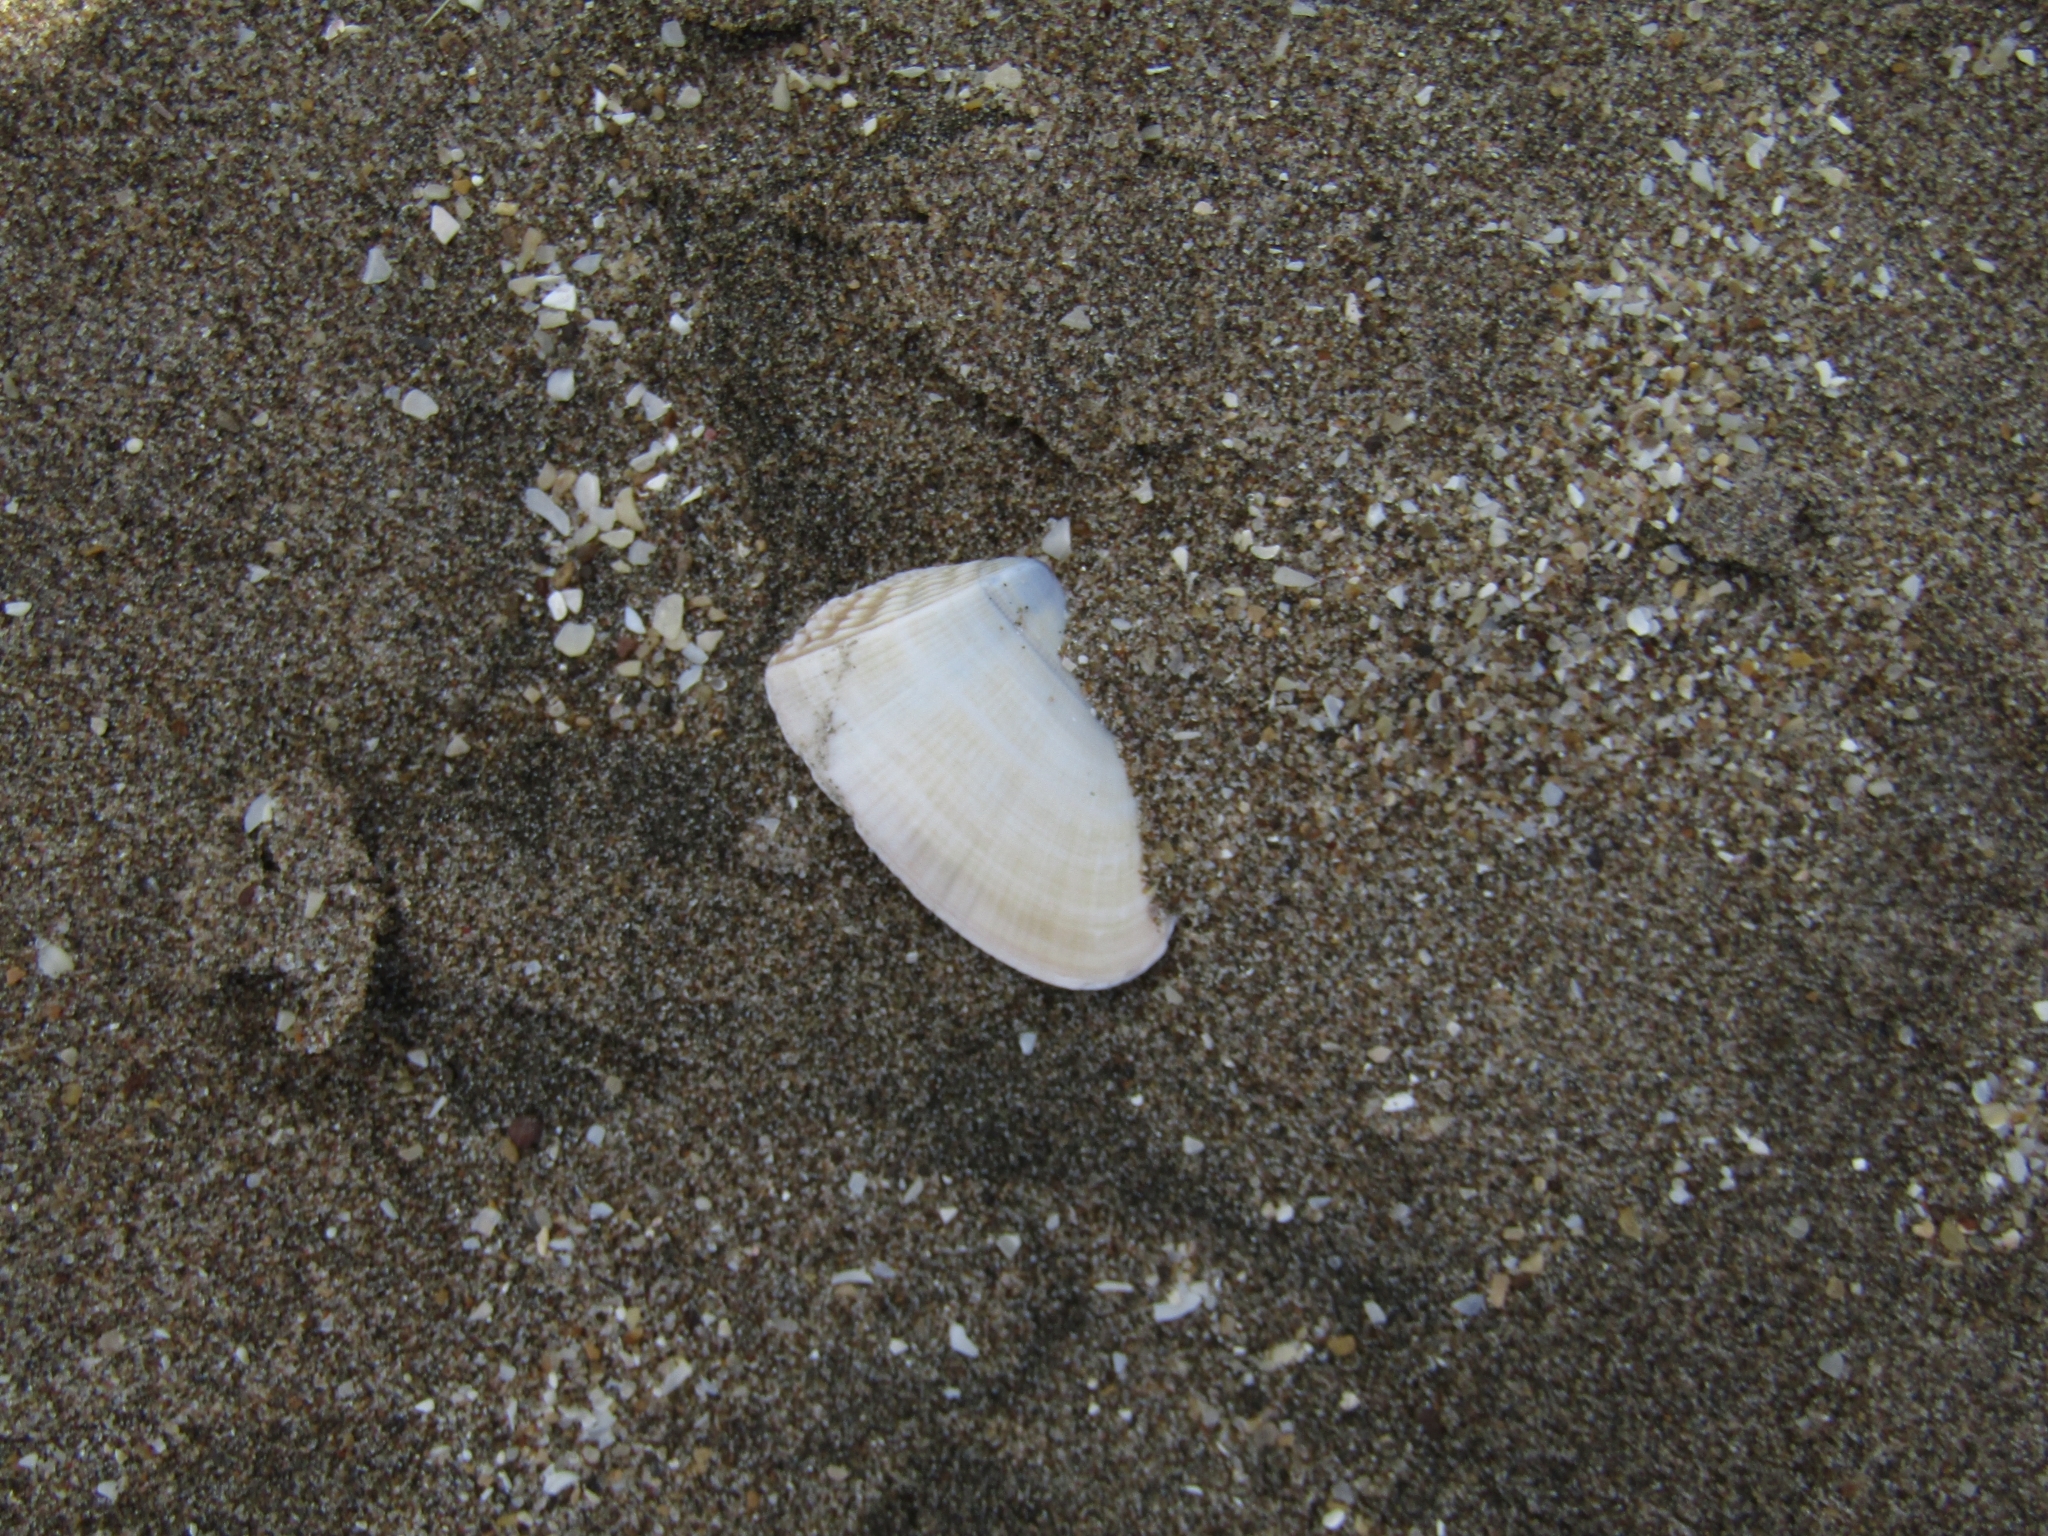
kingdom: Animalia
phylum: Mollusca
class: Bivalvia
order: Cardiida
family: Donacidae
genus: Donax
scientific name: Donax hanleyanus
